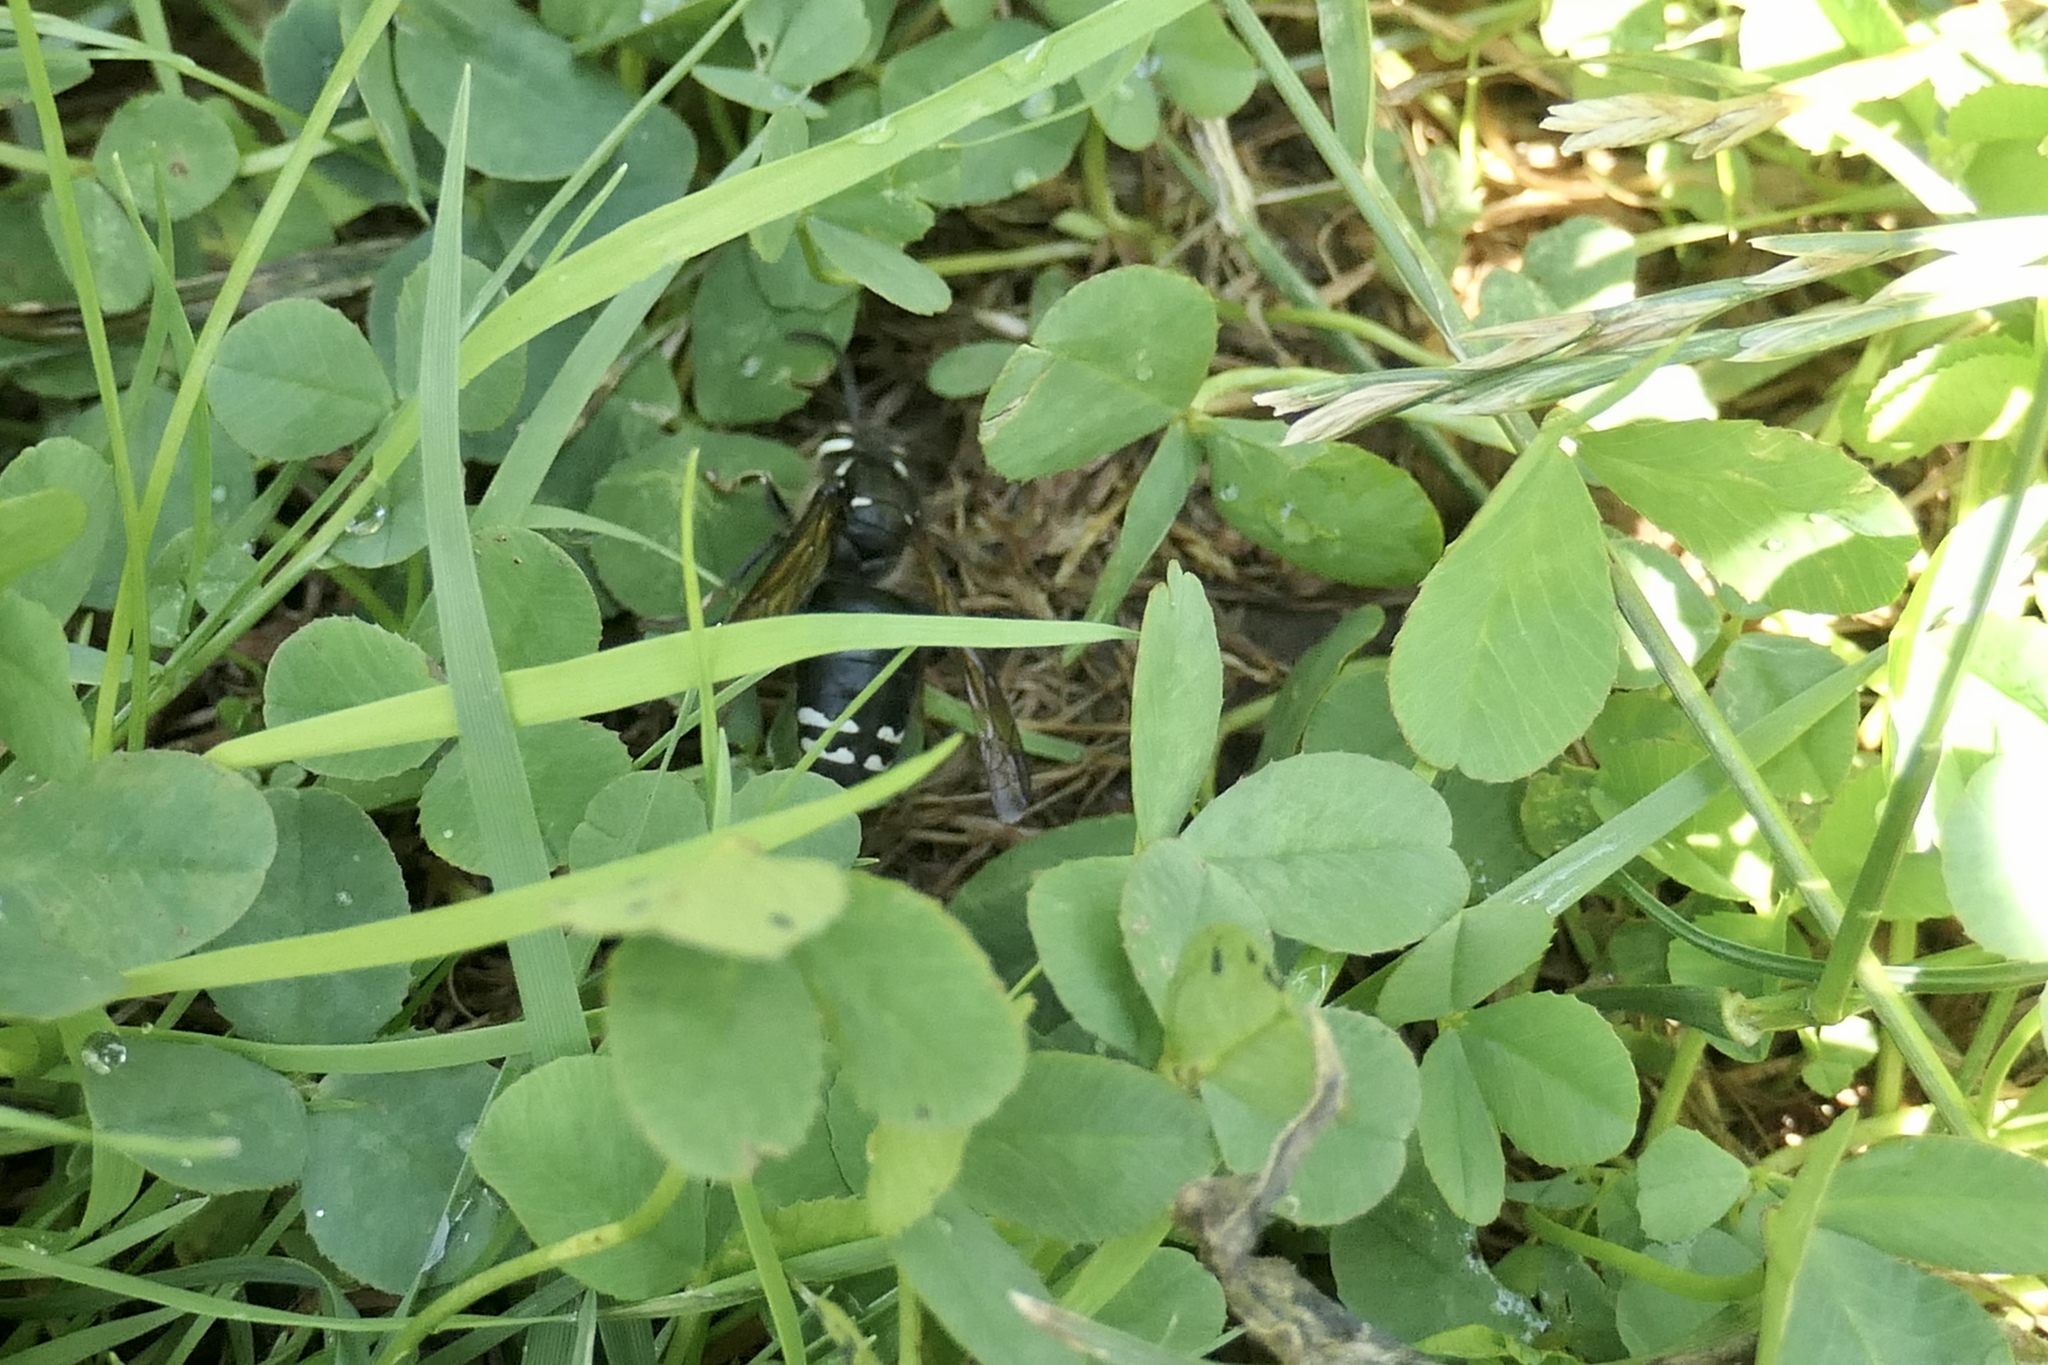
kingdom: Animalia
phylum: Arthropoda
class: Insecta
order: Hymenoptera
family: Vespidae
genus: Dolichovespula
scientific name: Dolichovespula maculata
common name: Bald-faced hornet
